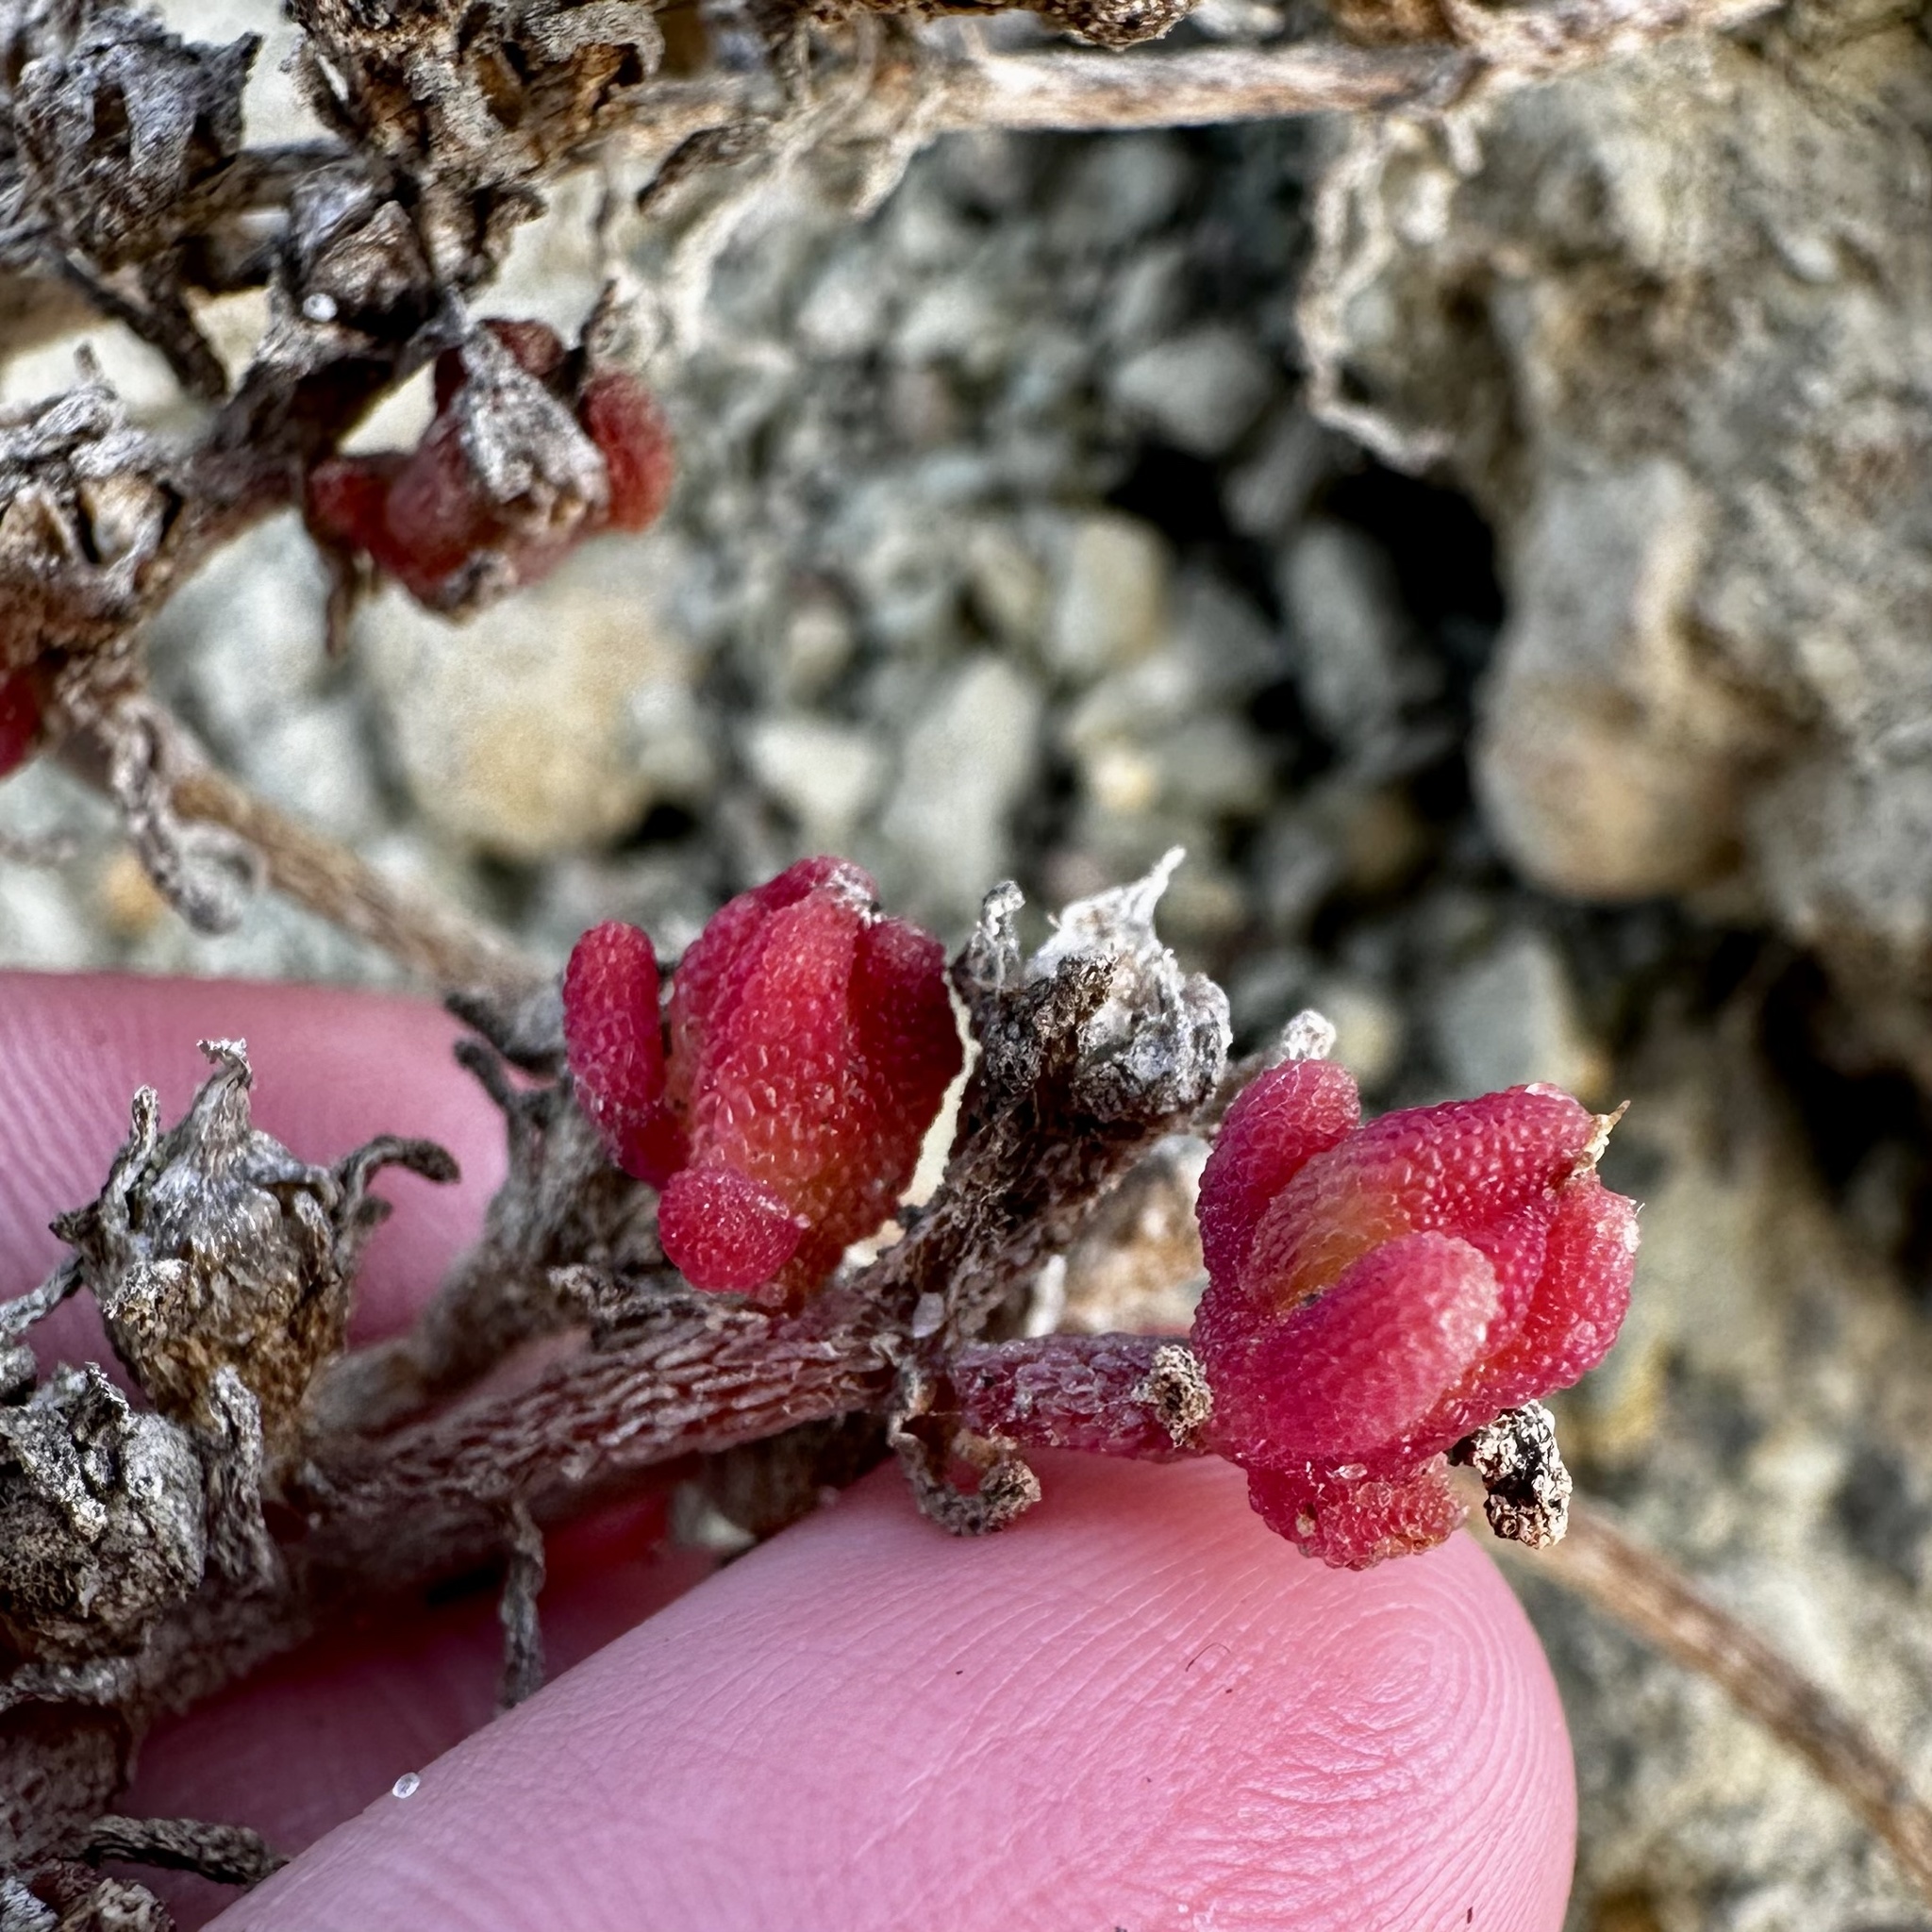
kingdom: Plantae
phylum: Tracheophyta
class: Magnoliopsida
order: Caryophyllales
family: Aizoaceae
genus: Mesembryanthemum
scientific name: Mesembryanthemum nodiflorum
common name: Slenderleaf iceplant
